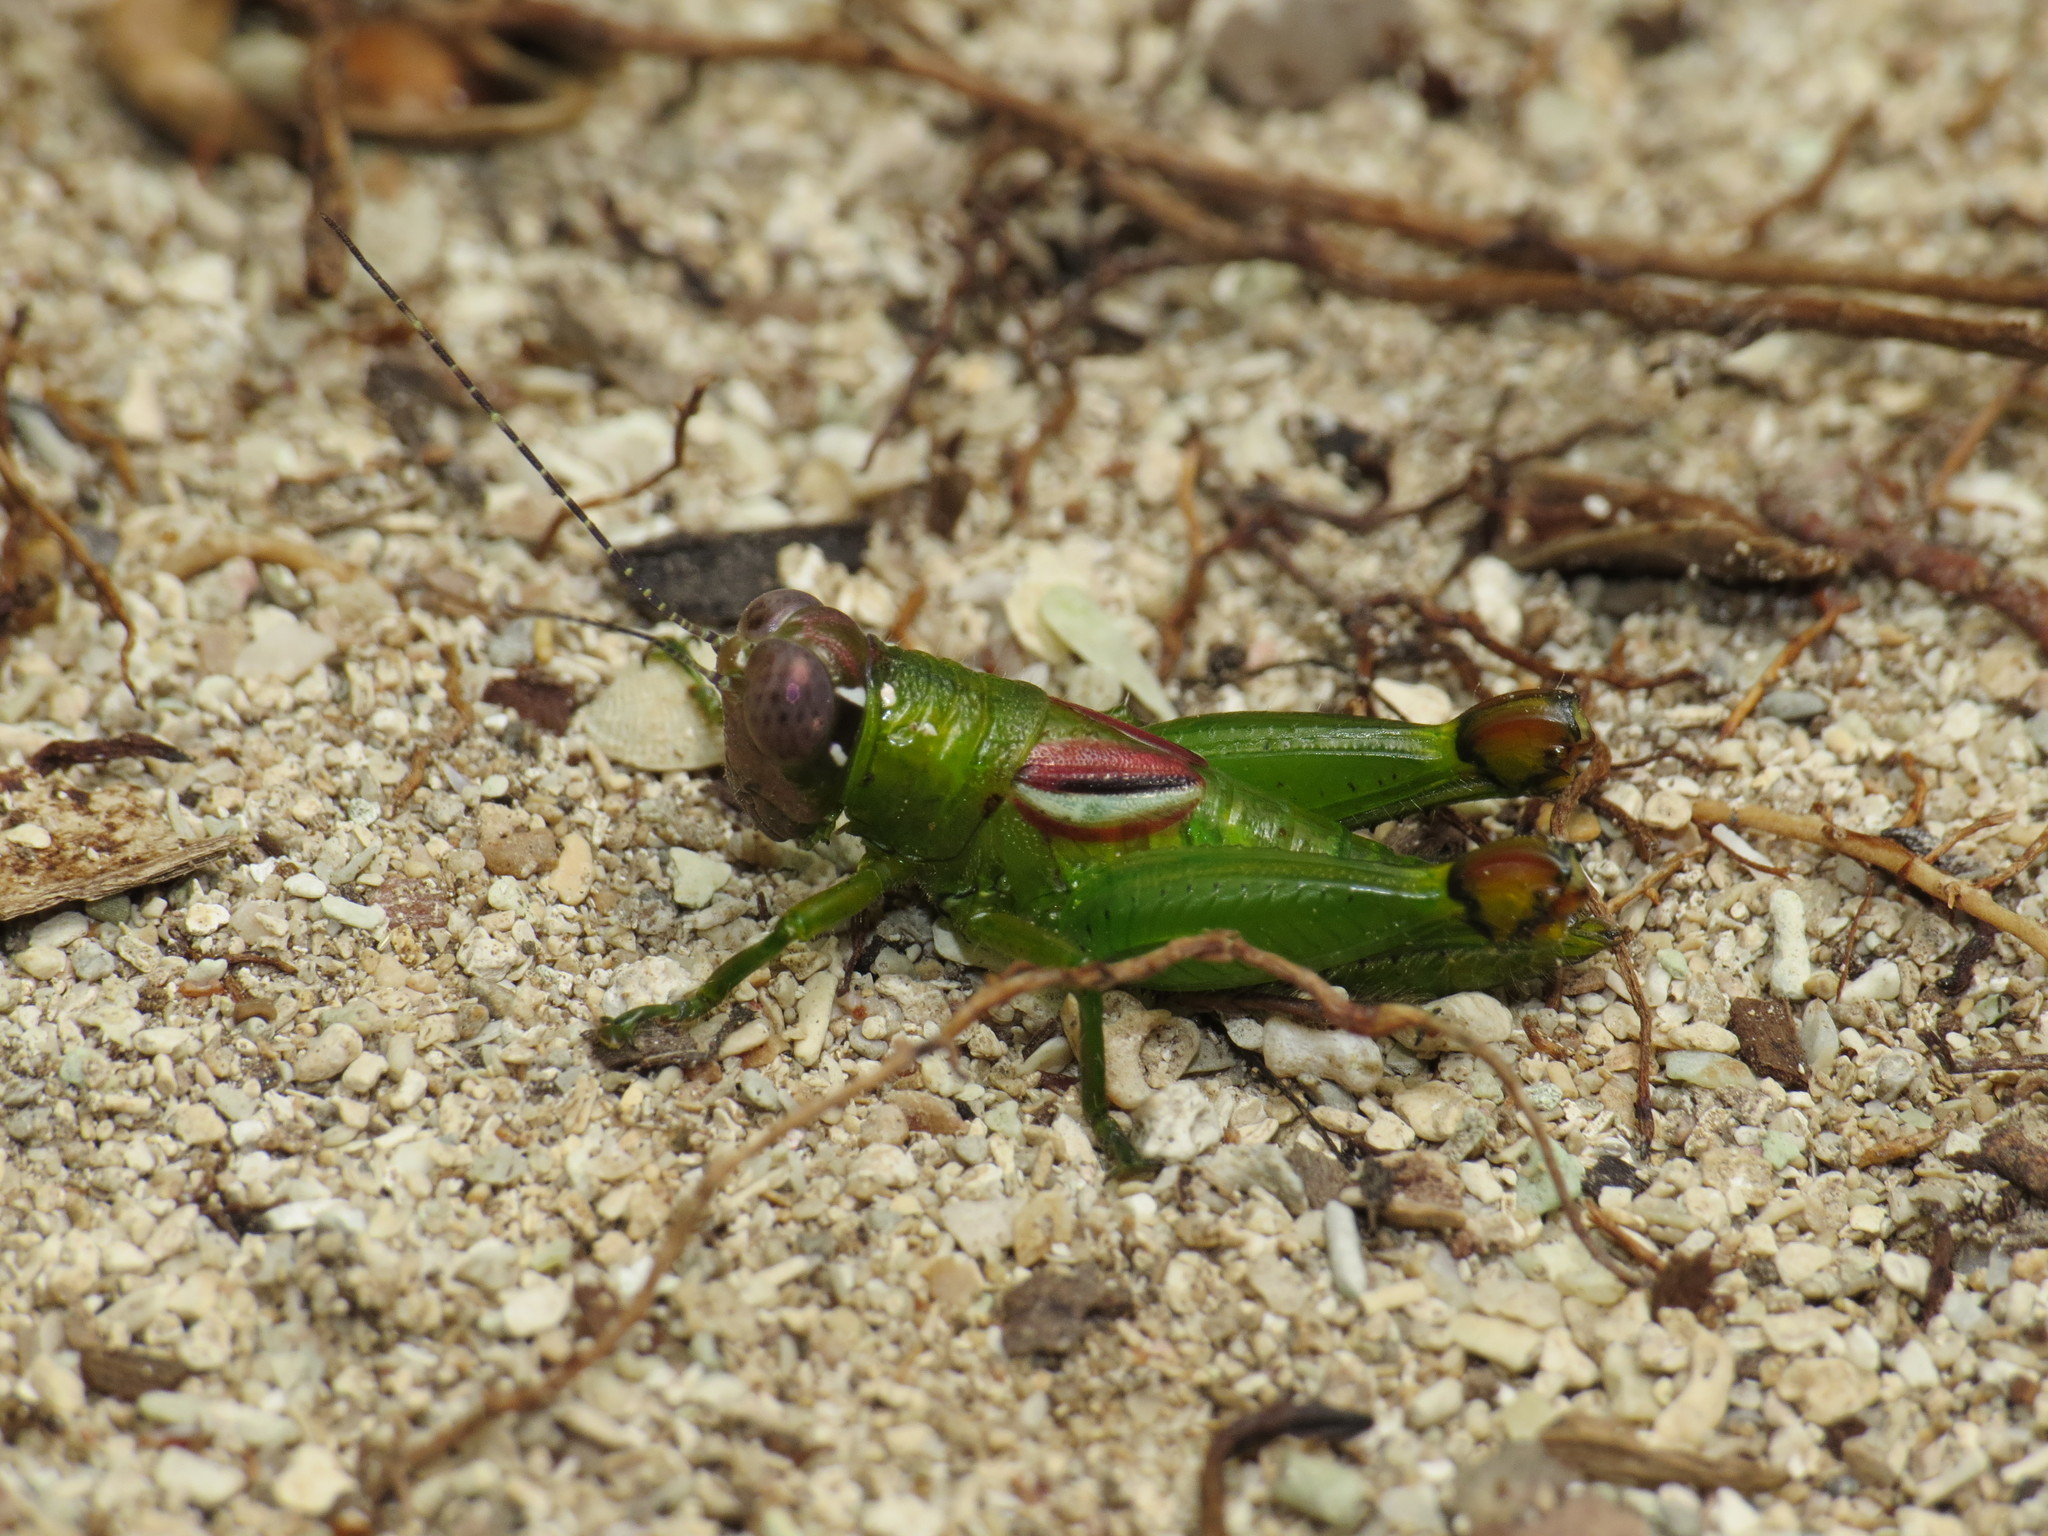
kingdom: Animalia
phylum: Arthropoda
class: Insecta
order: Orthoptera
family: Romaleidae
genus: Zoumolampis
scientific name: Zoumolampis bradleyi
